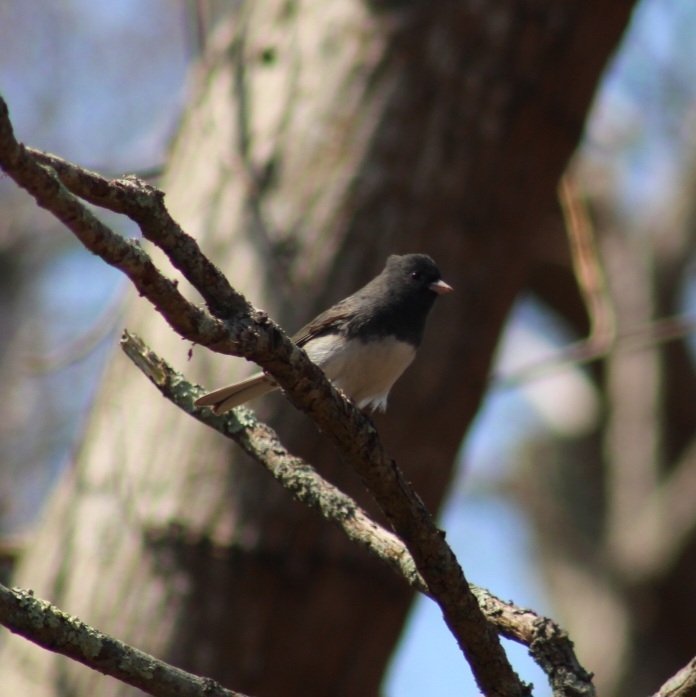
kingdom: Animalia
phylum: Chordata
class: Aves
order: Passeriformes
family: Passerellidae
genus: Junco
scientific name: Junco hyemalis
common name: Dark-eyed junco
